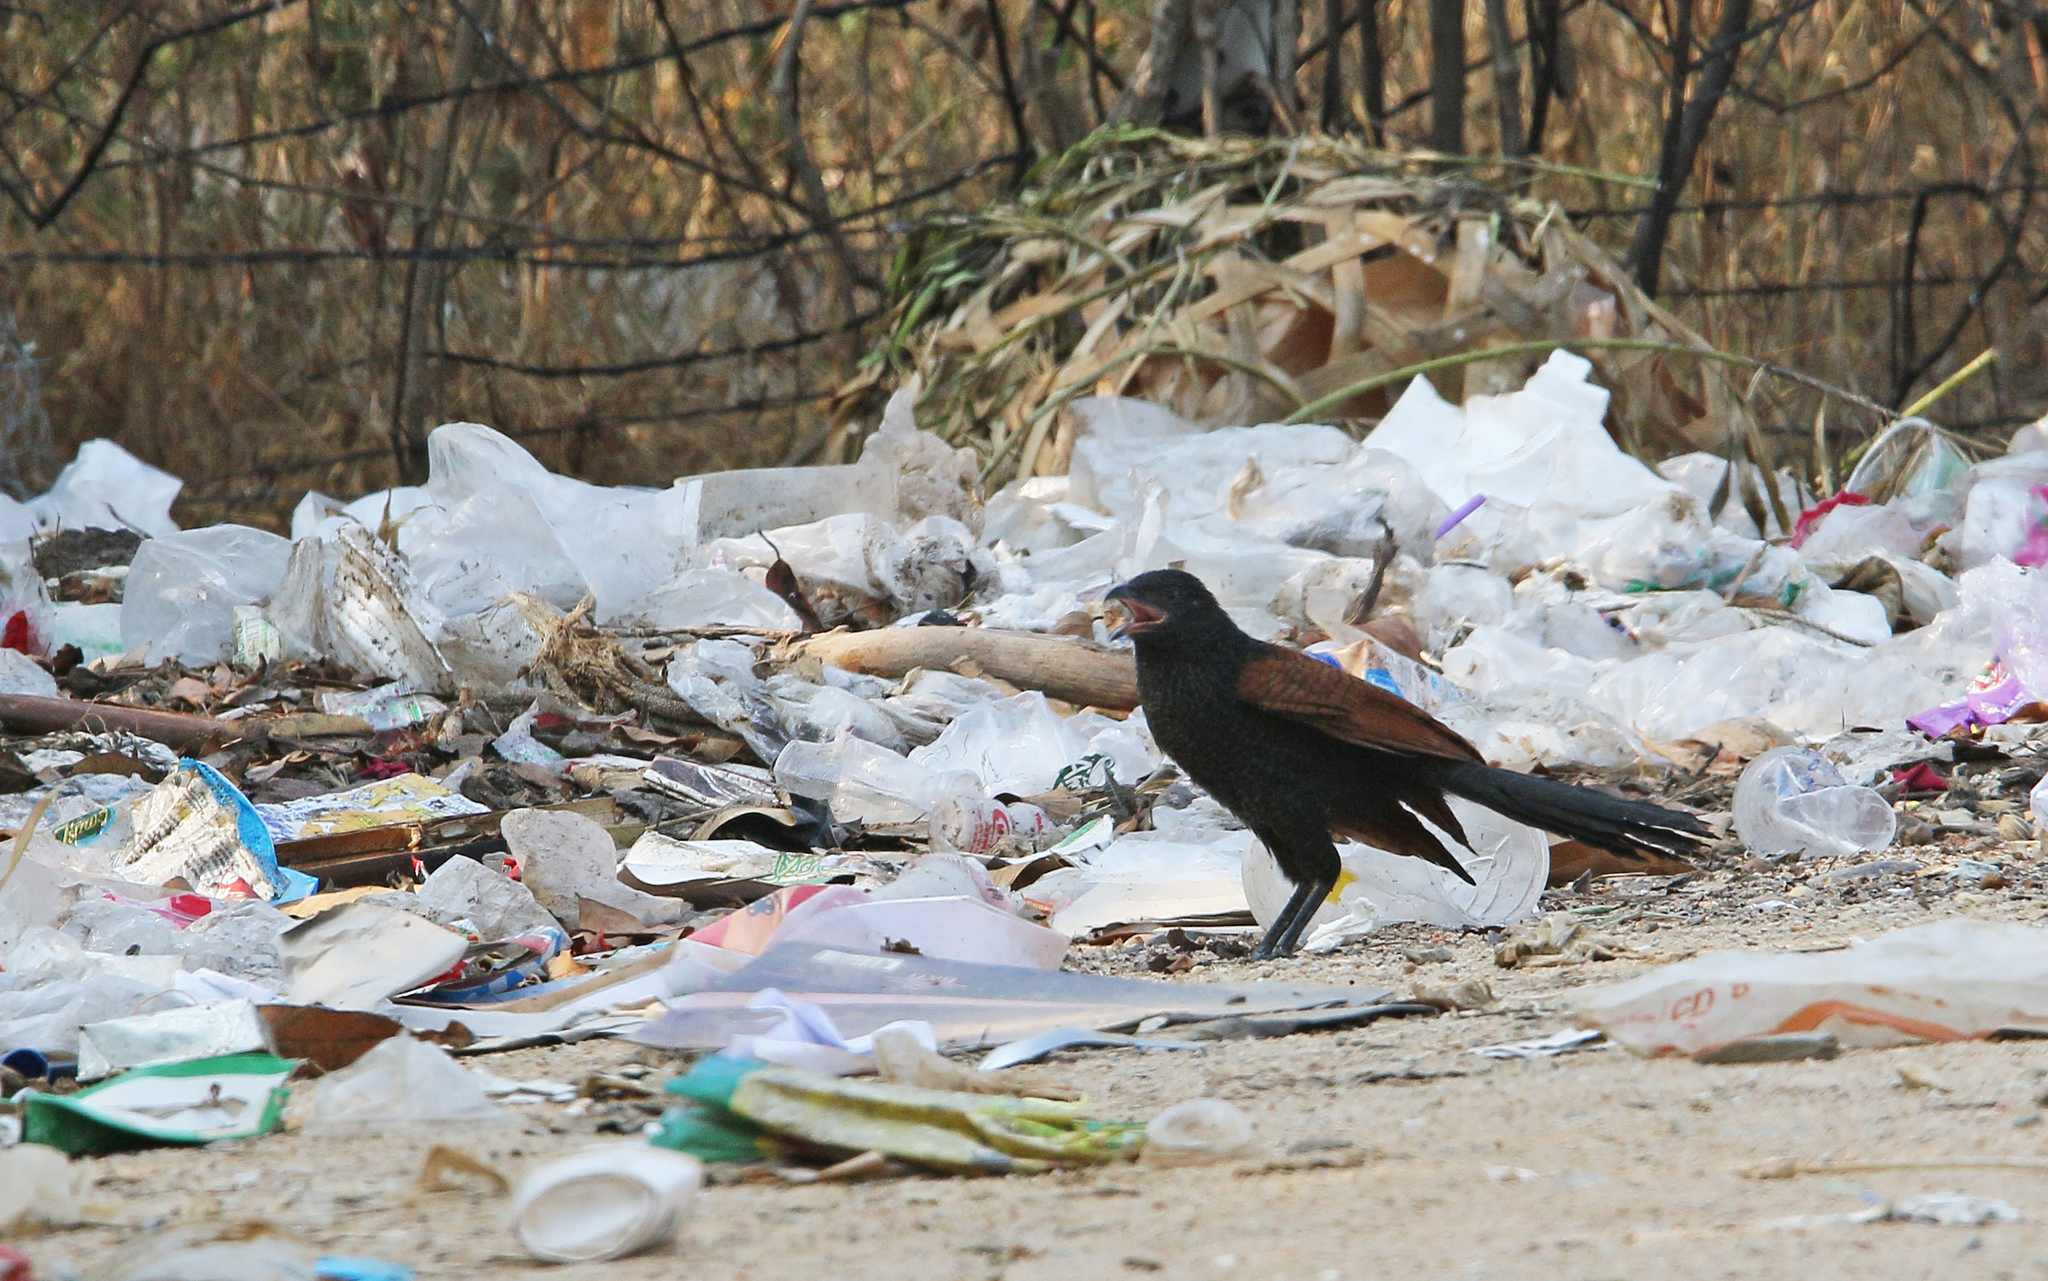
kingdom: Animalia
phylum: Chordata
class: Aves
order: Cuculiformes
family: Cuculidae
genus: Centropus
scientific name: Centropus sinensis
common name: Greater coucal
